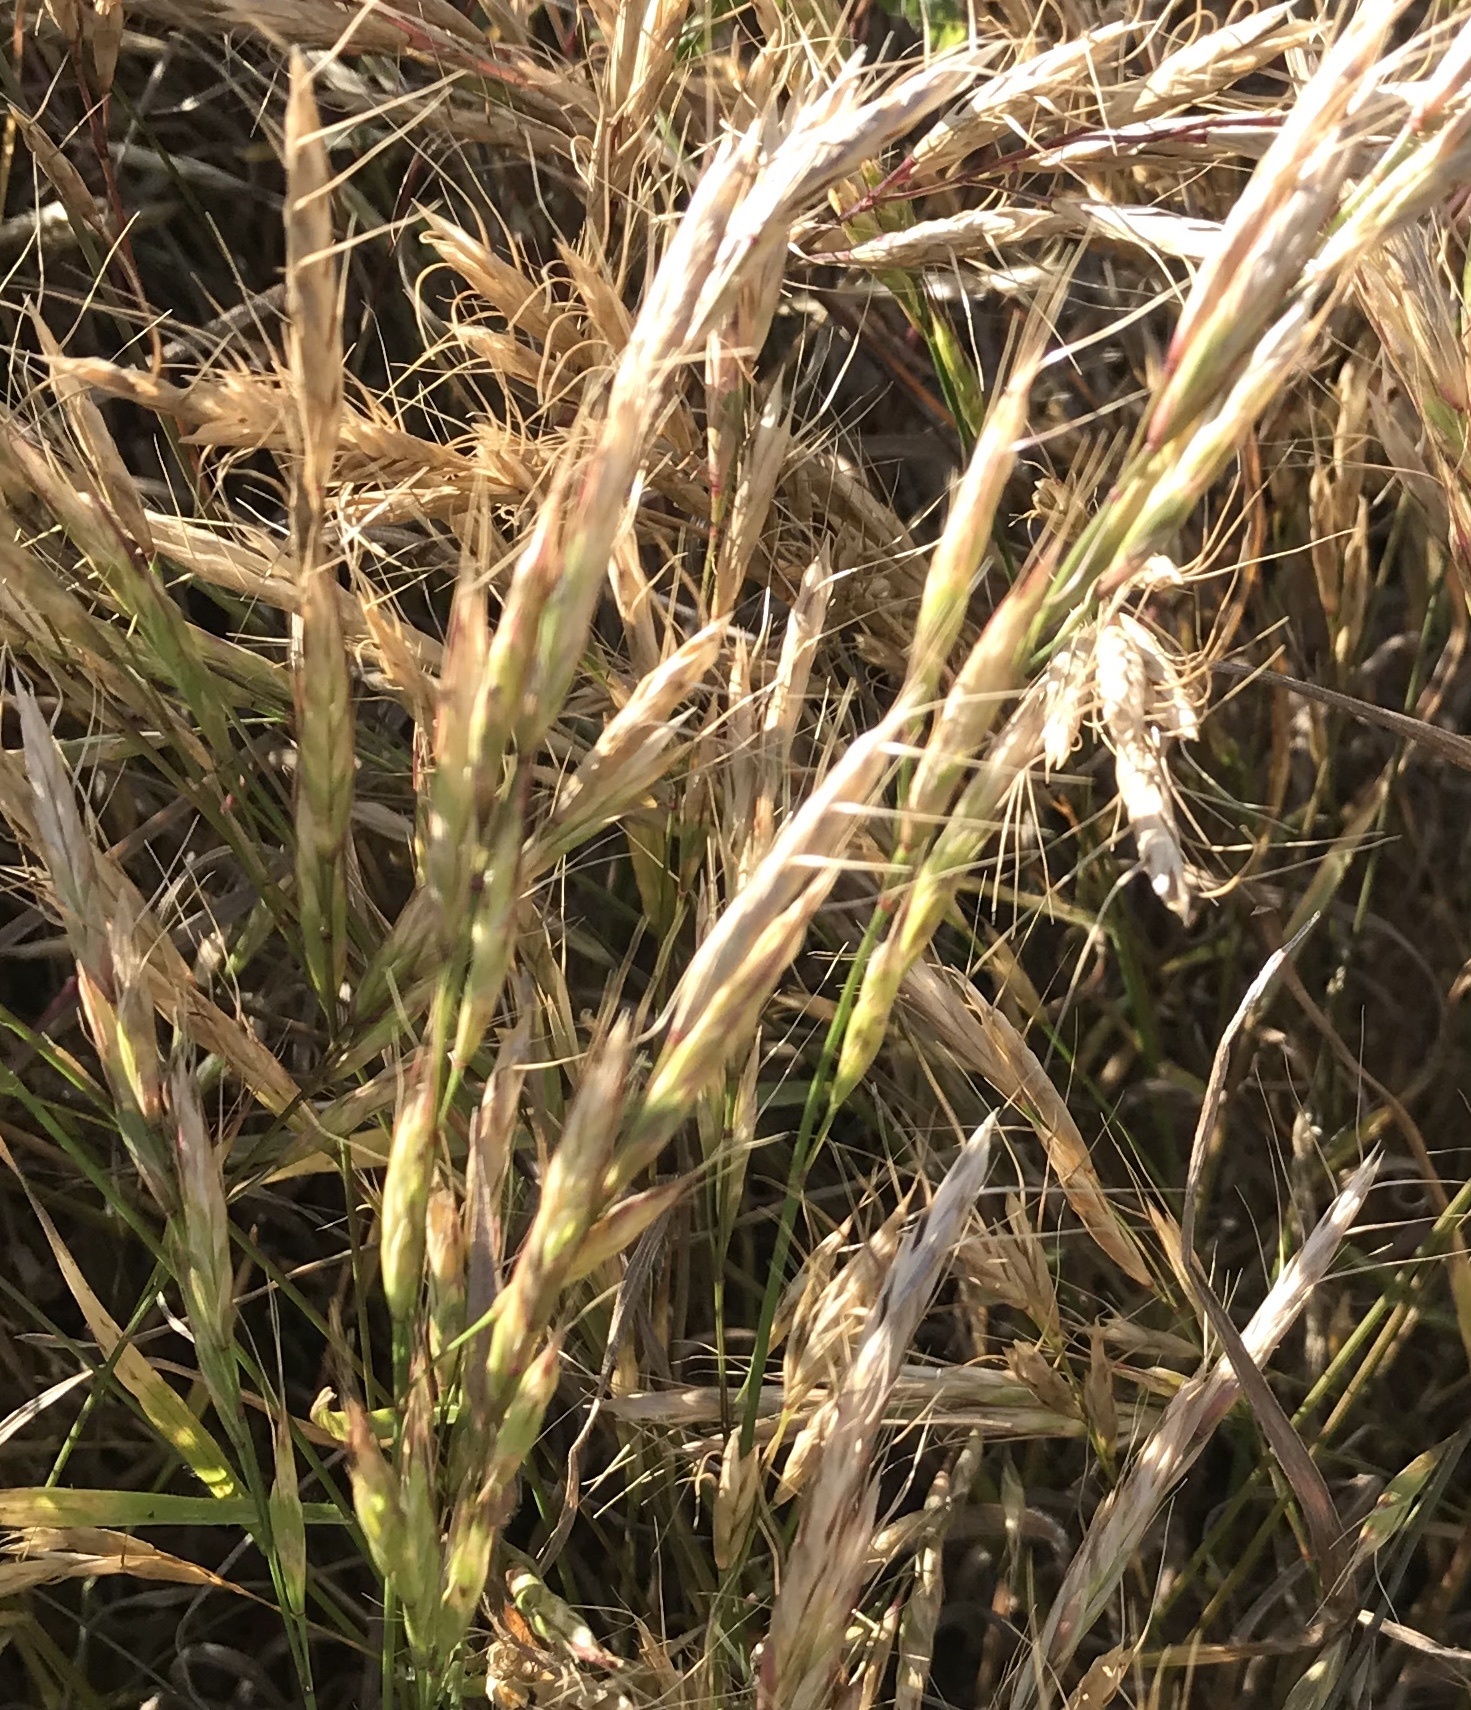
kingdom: Plantae
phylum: Tracheophyta
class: Liliopsida
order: Poales
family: Poaceae
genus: Bromus
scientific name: Bromus lanceolatus
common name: Mediterranean brome
